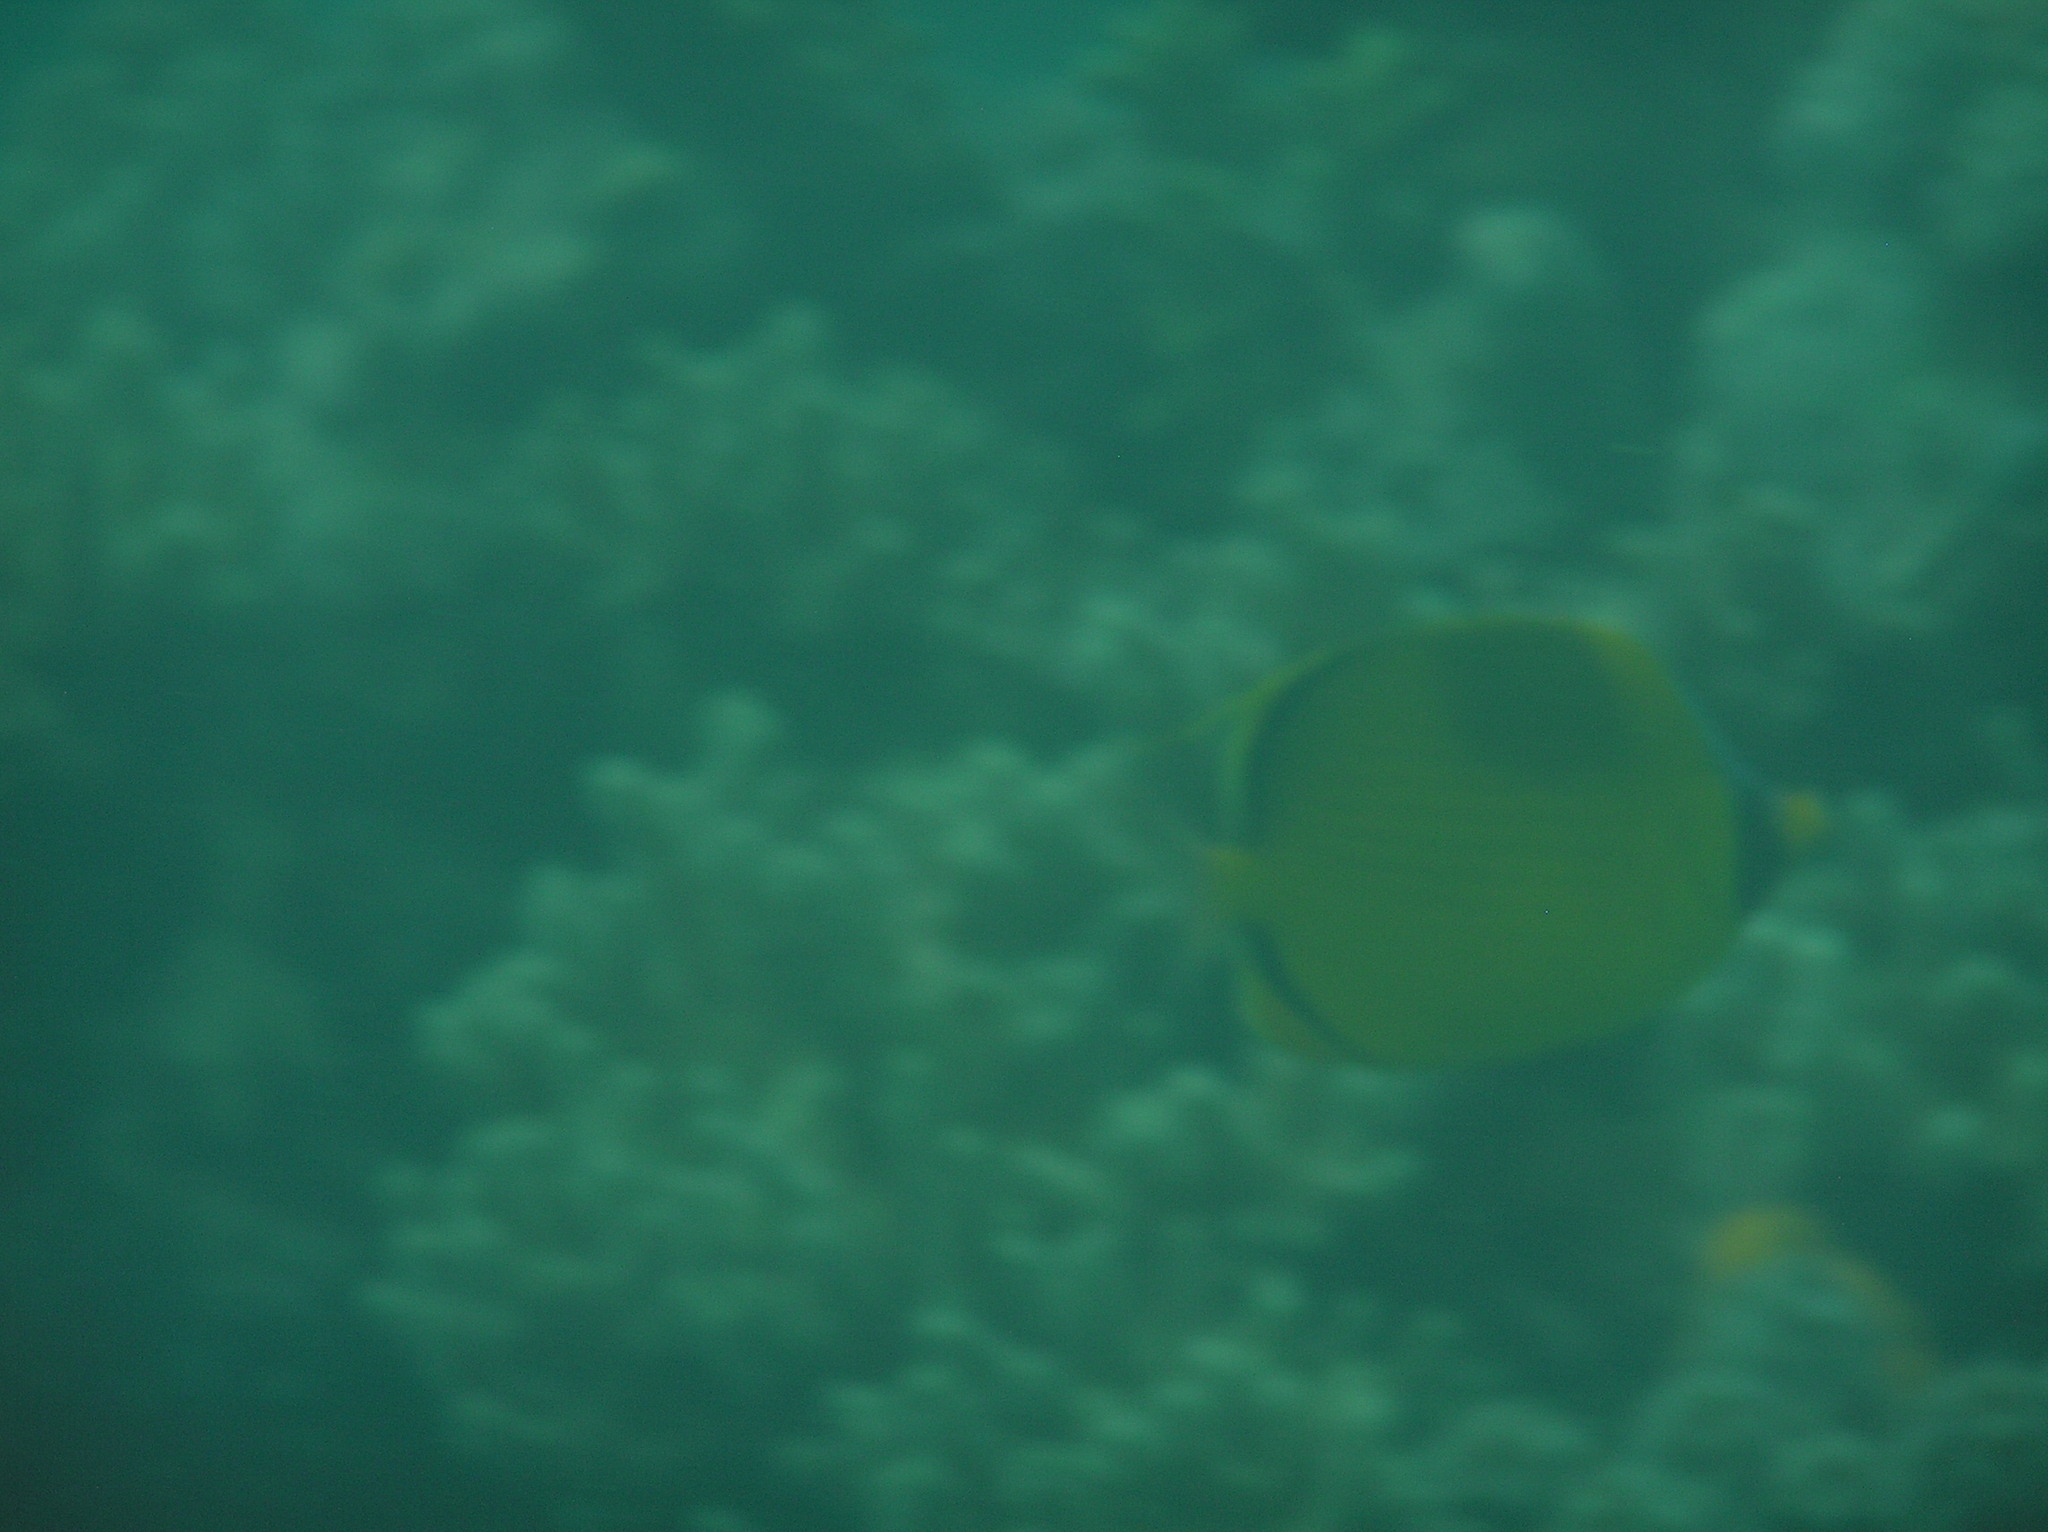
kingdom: Animalia
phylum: Chordata
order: Perciformes
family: Chaetodontidae
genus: Chaetodon
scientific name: Chaetodon semeion
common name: Dotted butterflyfish
